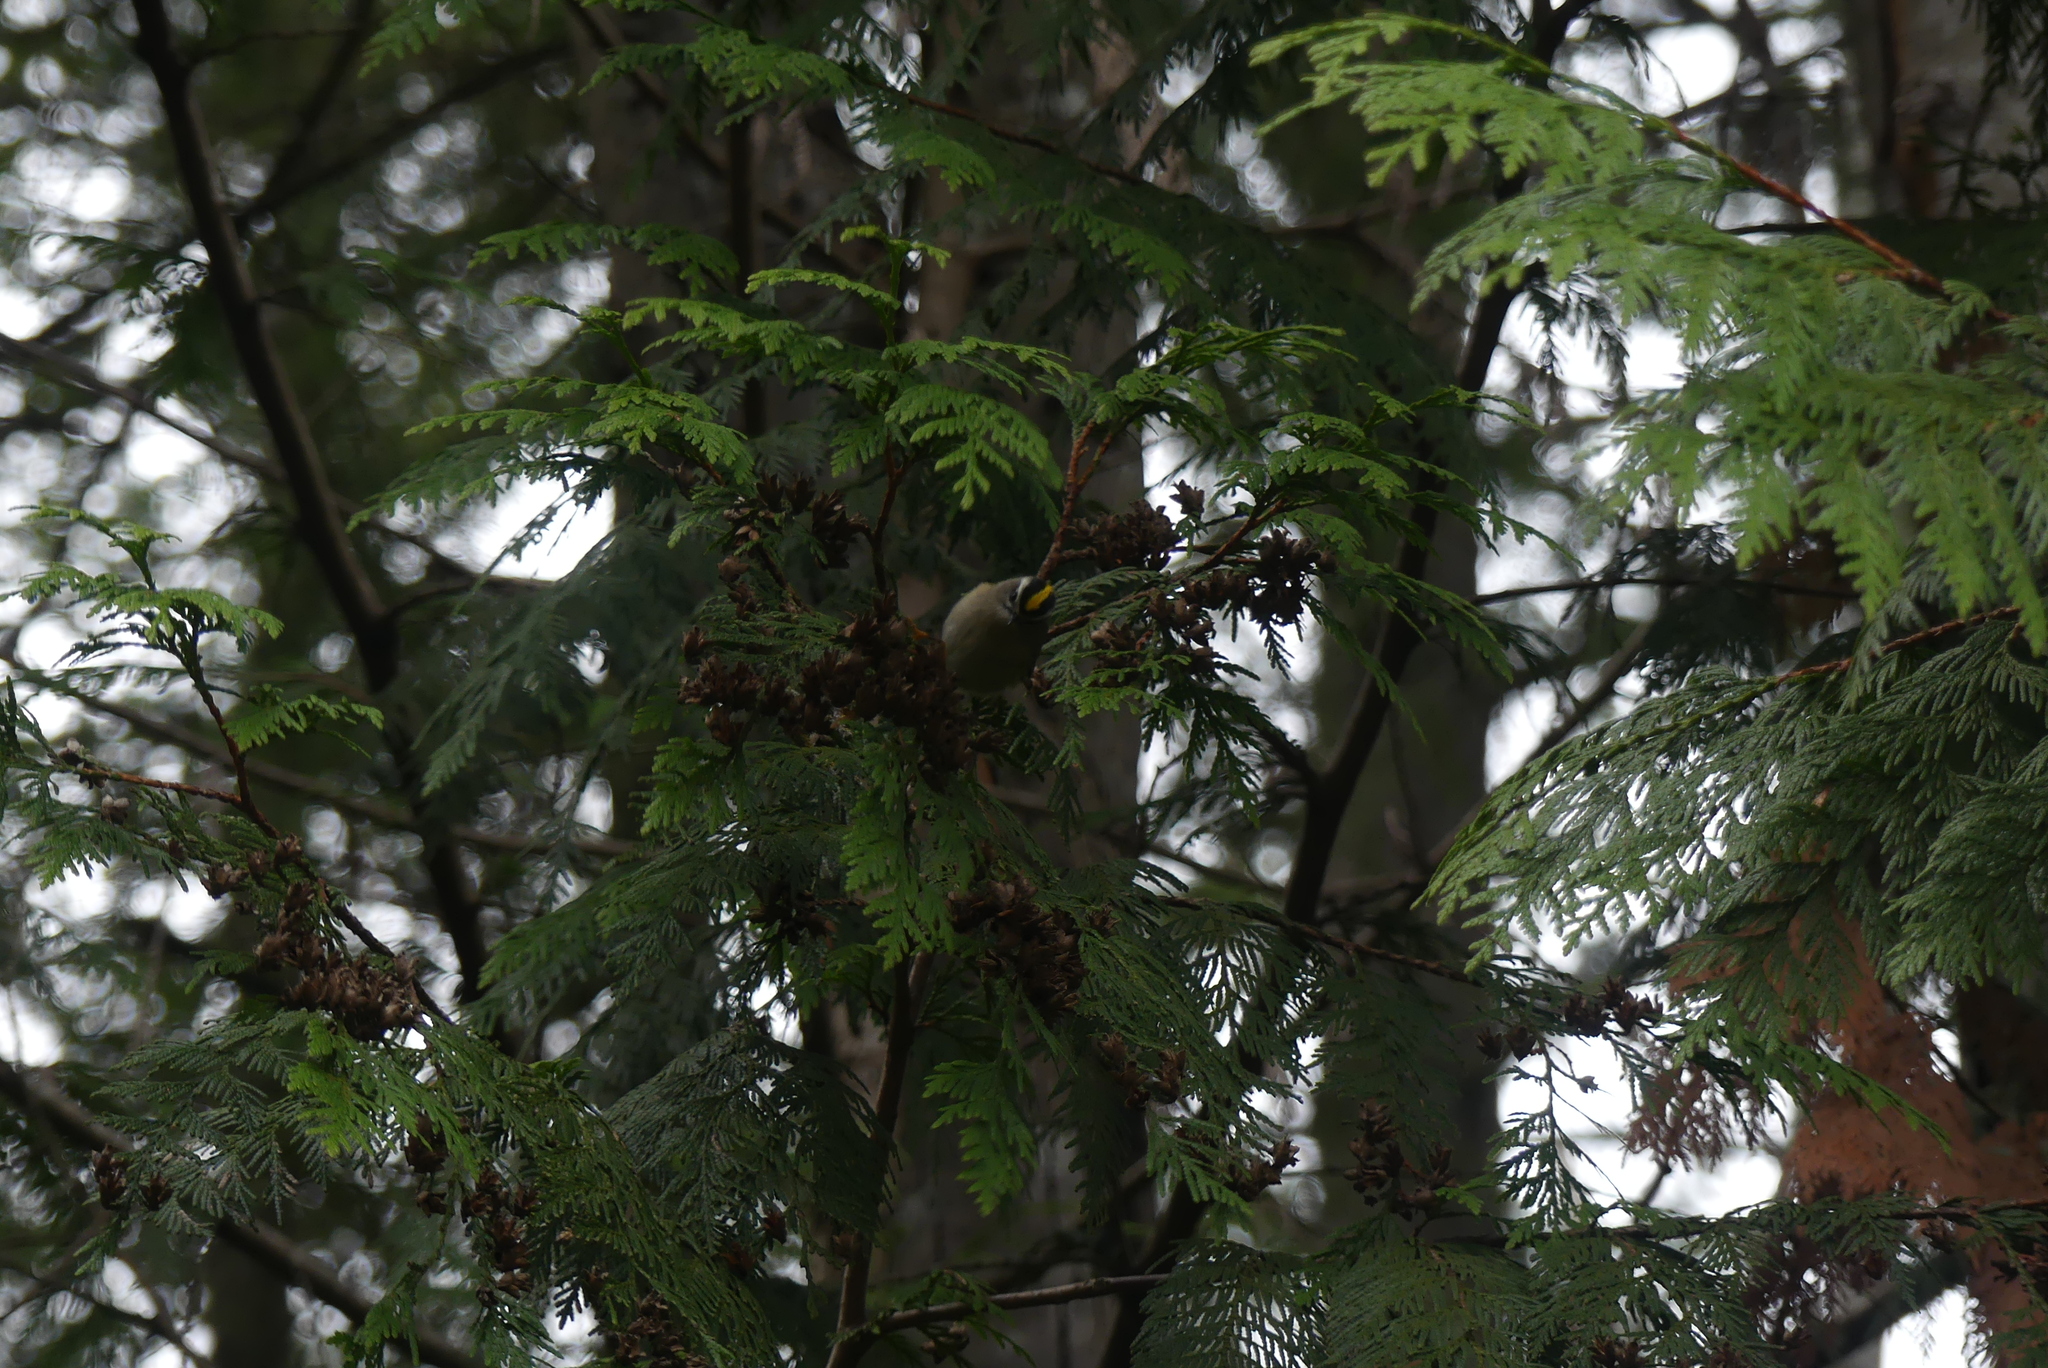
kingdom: Animalia
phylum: Chordata
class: Aves
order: Passeriformes
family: Regulidae
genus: Regulus
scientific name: Regulus satrapa
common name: Golden-crowned kinglet
